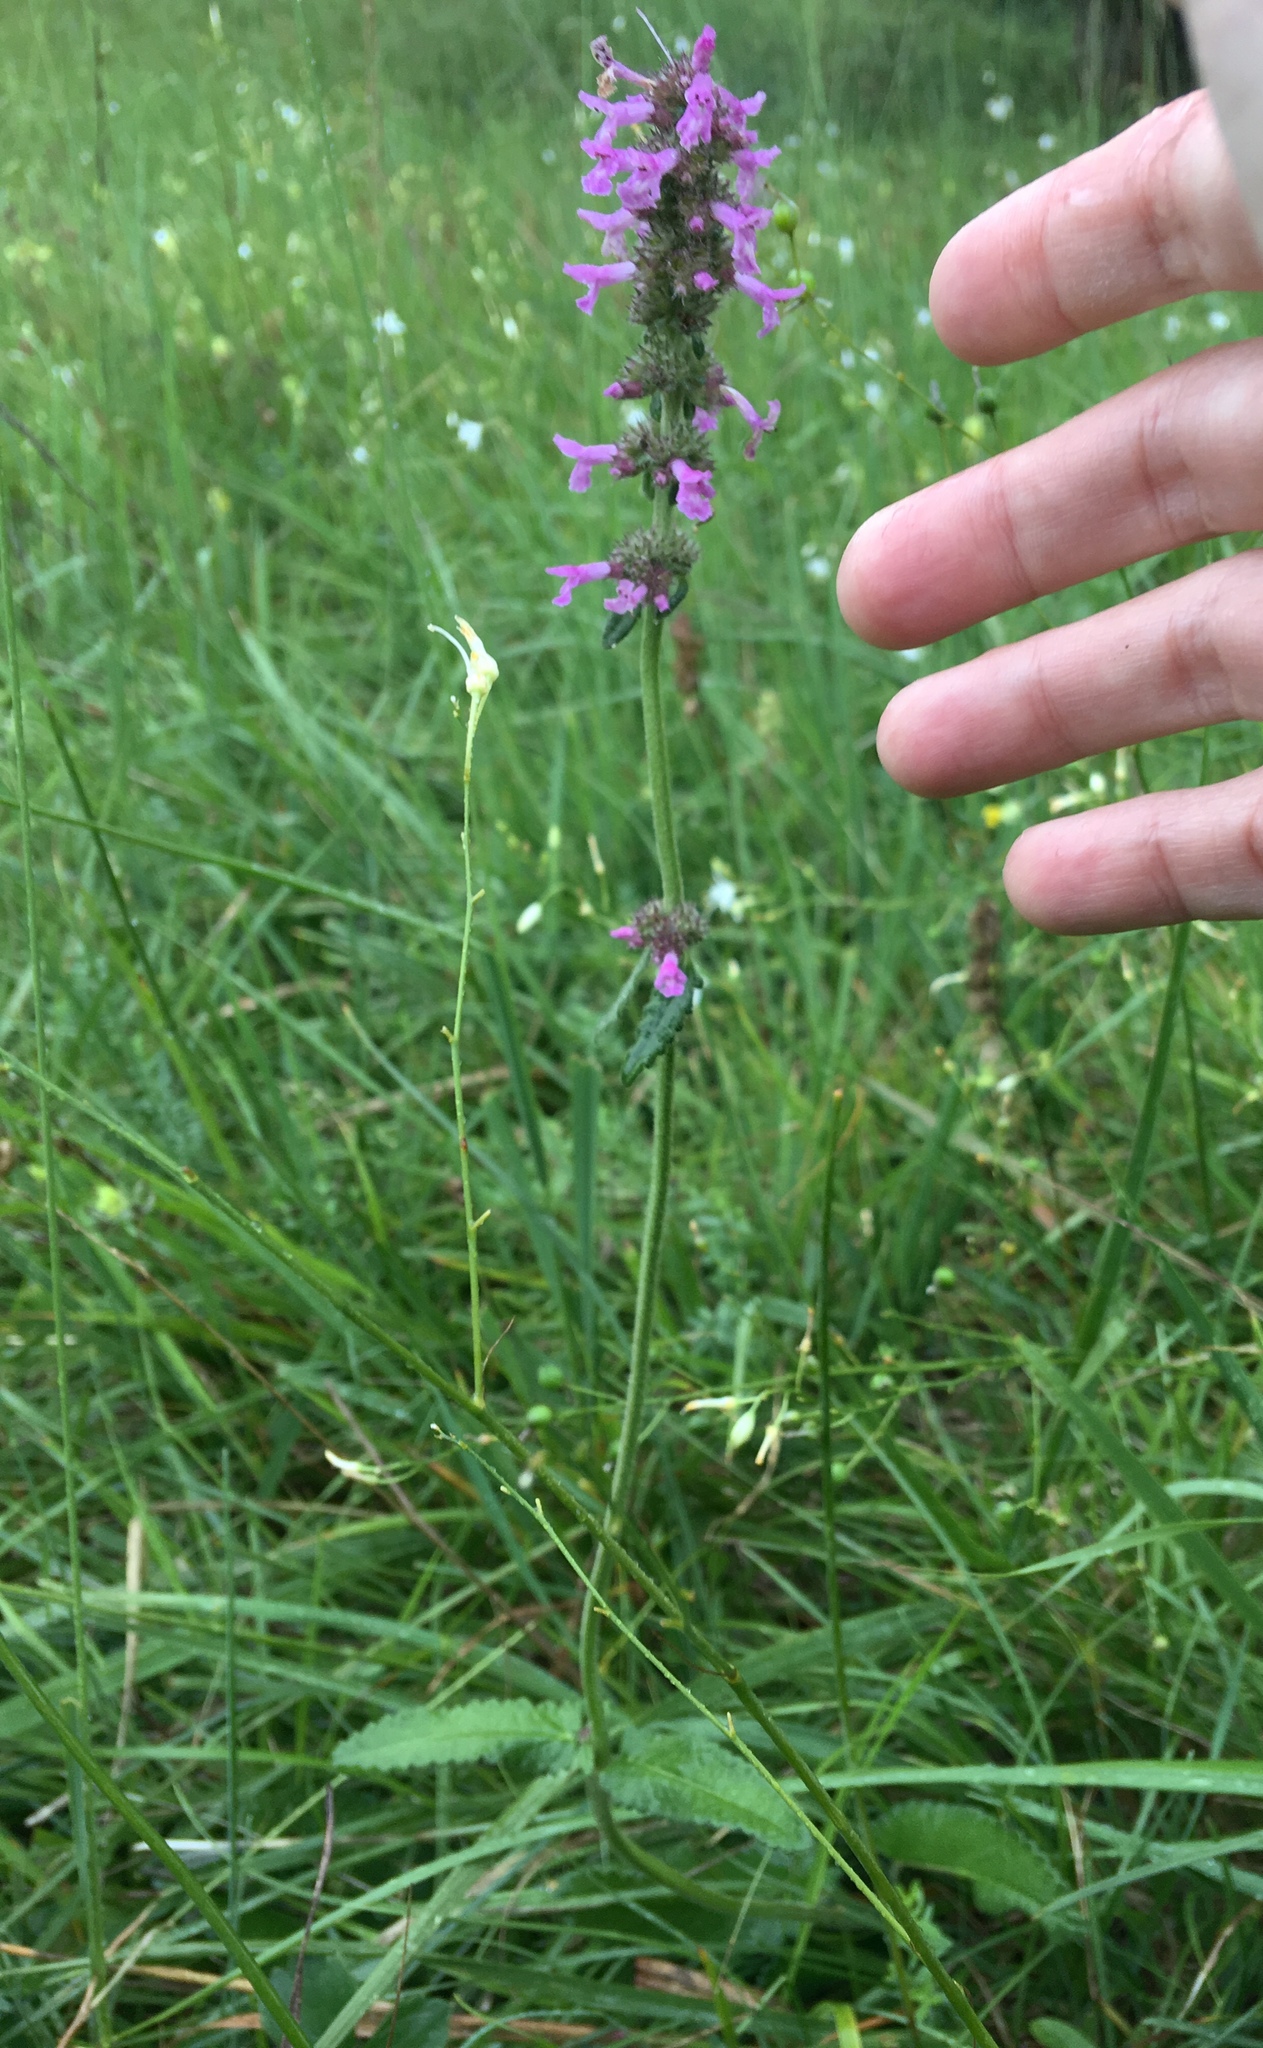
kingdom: Plantae
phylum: Tracheophyta
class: Magnoliopsida
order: Lamiales
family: Lamiaceae
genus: Betonica
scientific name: Betonica officinalis
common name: Bishop's-wort
